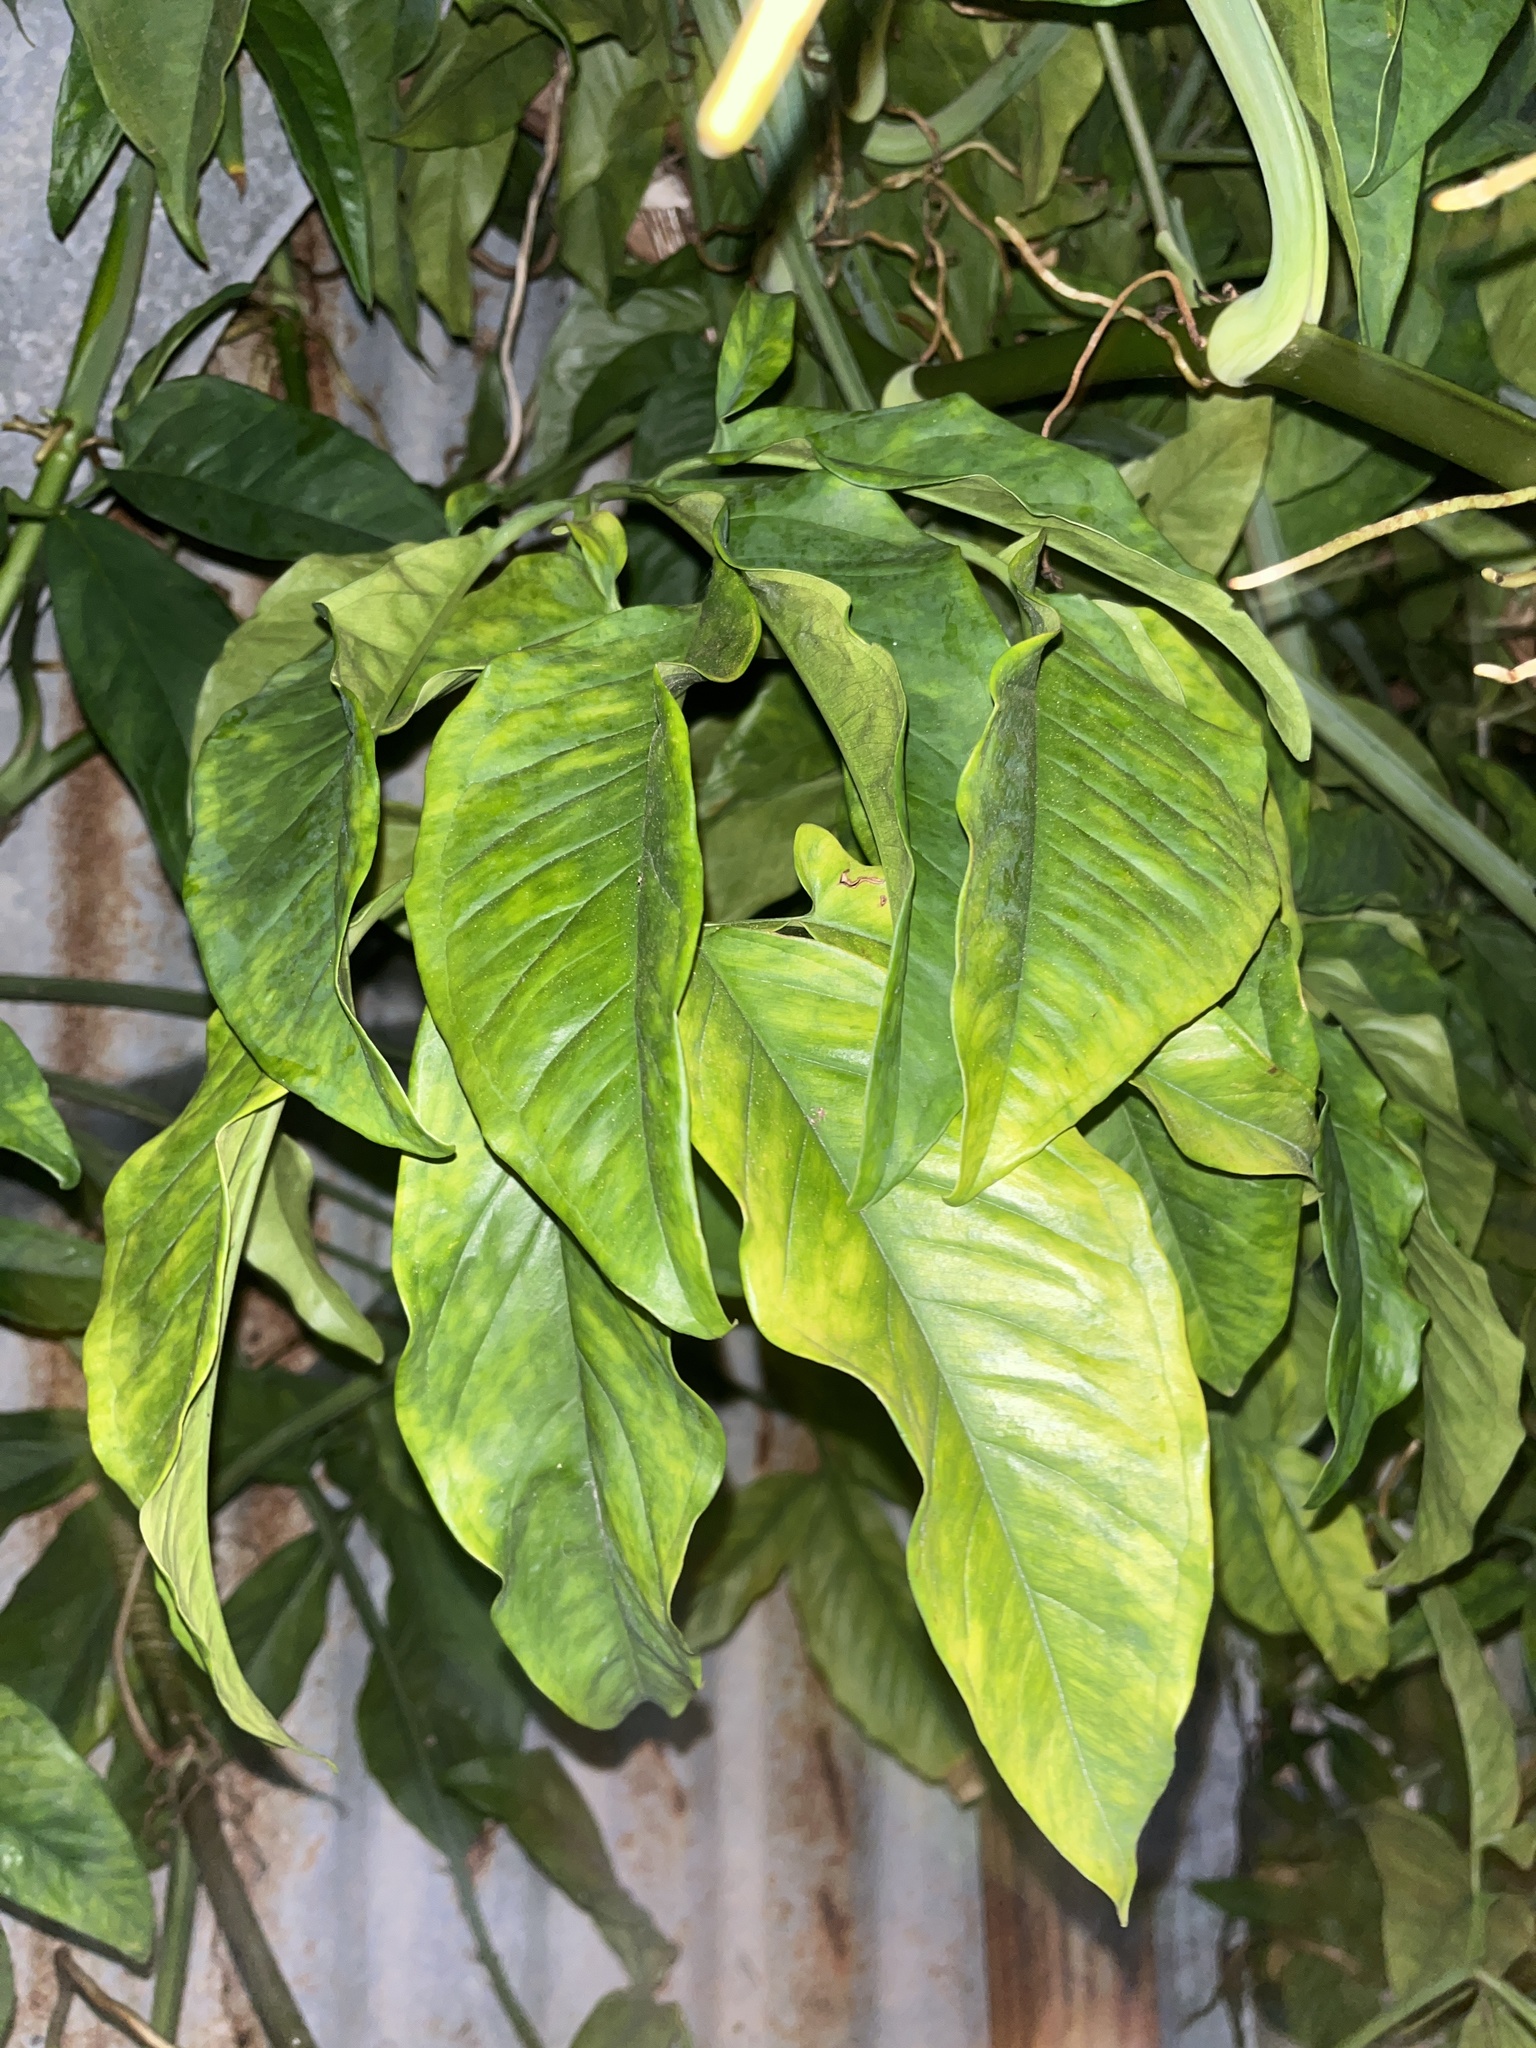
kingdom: Plantae
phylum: Tracheophyta
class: Liliopsida
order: Alismatales
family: Araceae
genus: Syngonium
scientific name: Syngonium podophyllum
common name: American evergreen
